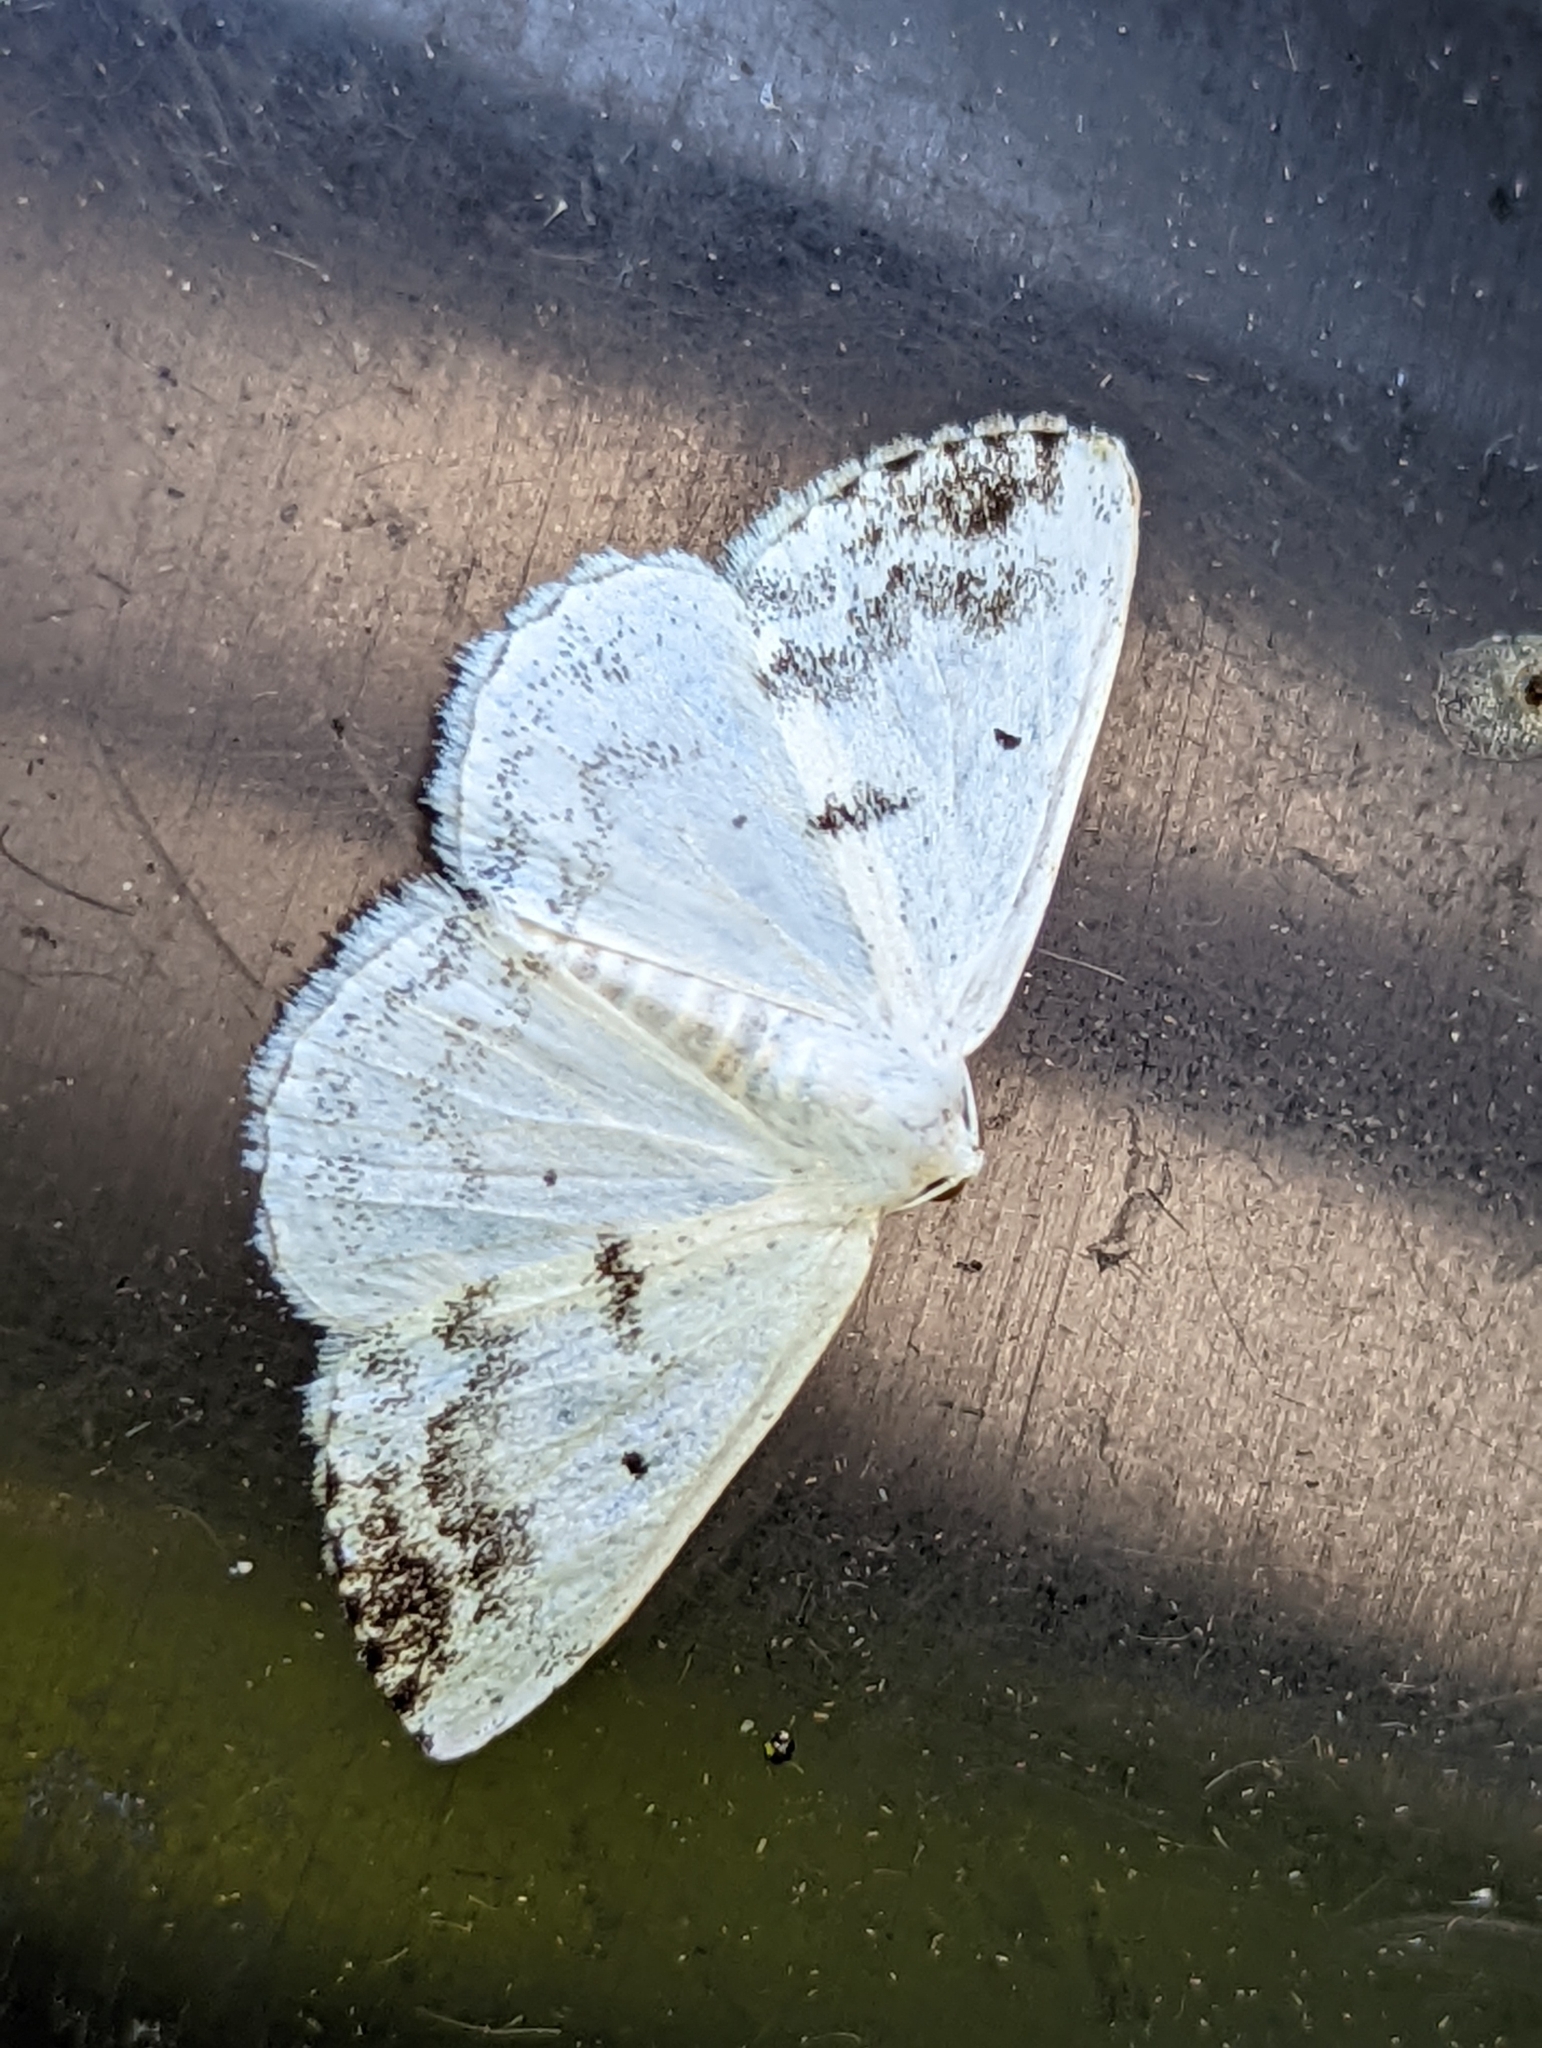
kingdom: Animalia
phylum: Arthropoda
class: Insecta
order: Lepidoptera
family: Geometridae
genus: Lomographa
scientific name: Lomographa temerata
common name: Clouded silver
